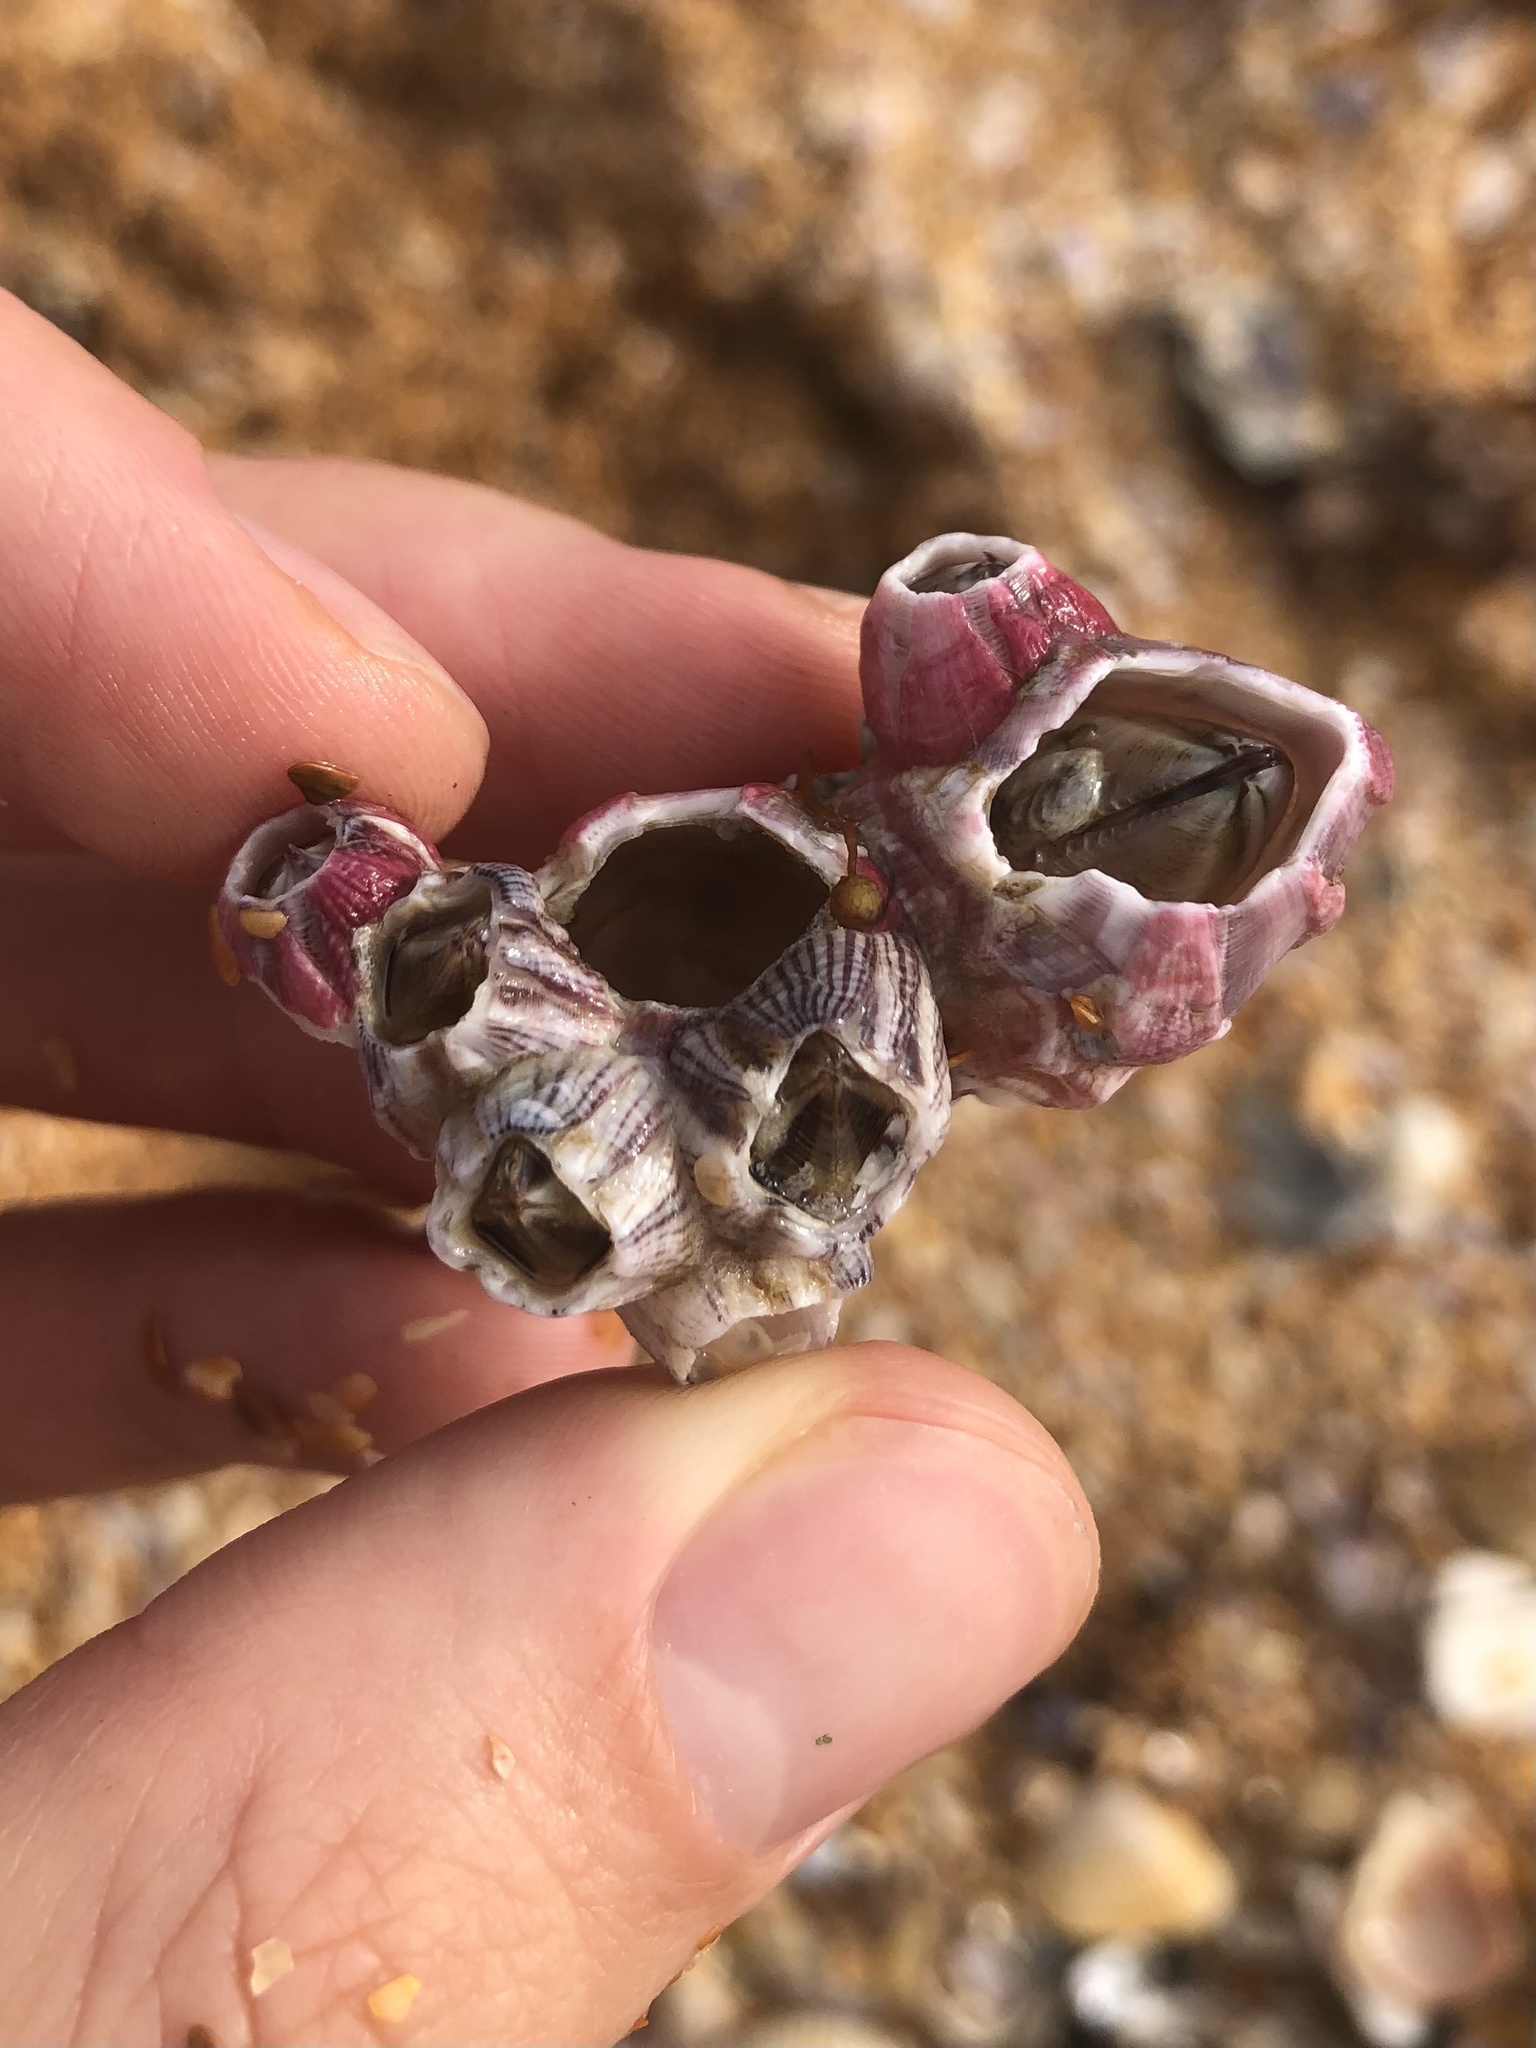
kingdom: Animalia
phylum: Arthropoda
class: Maxillopoda
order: Sessilia
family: Balanidae
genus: Amphibalanus
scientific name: Amphibalanus reticulatus
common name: Reticulated barnacle
